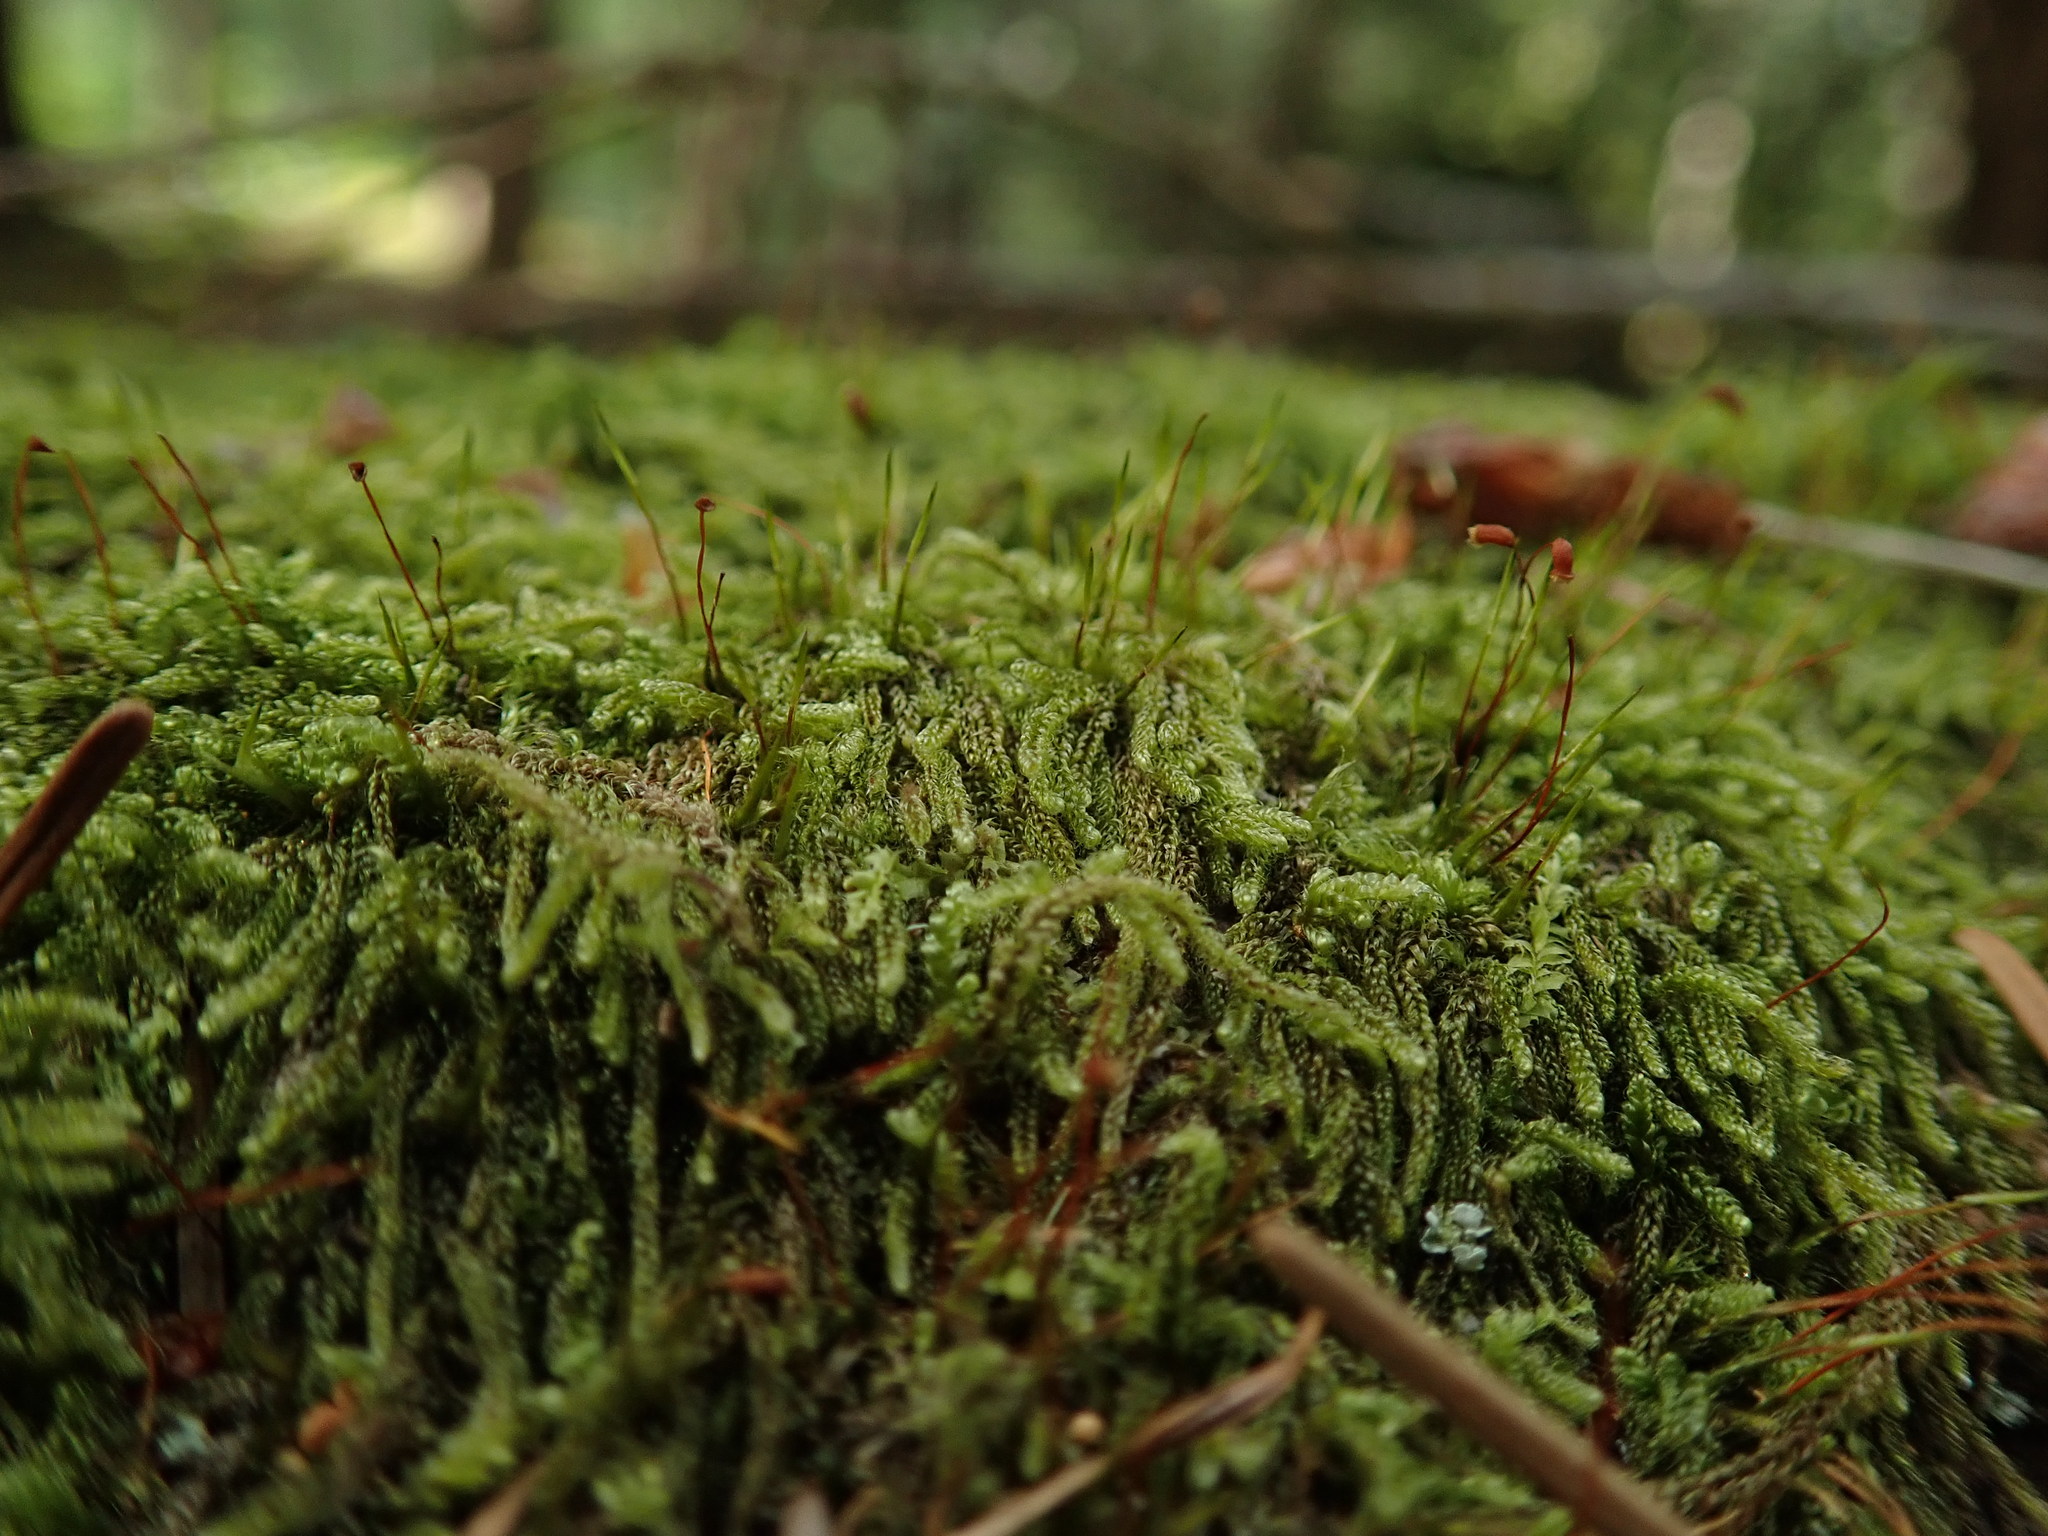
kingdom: Plantae
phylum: Bryophyta
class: Bryopsida
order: Hypnales
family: Pylaisiadelphaceae
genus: Trochophyllohypnum
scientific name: Trochophyllohypnum circinale
